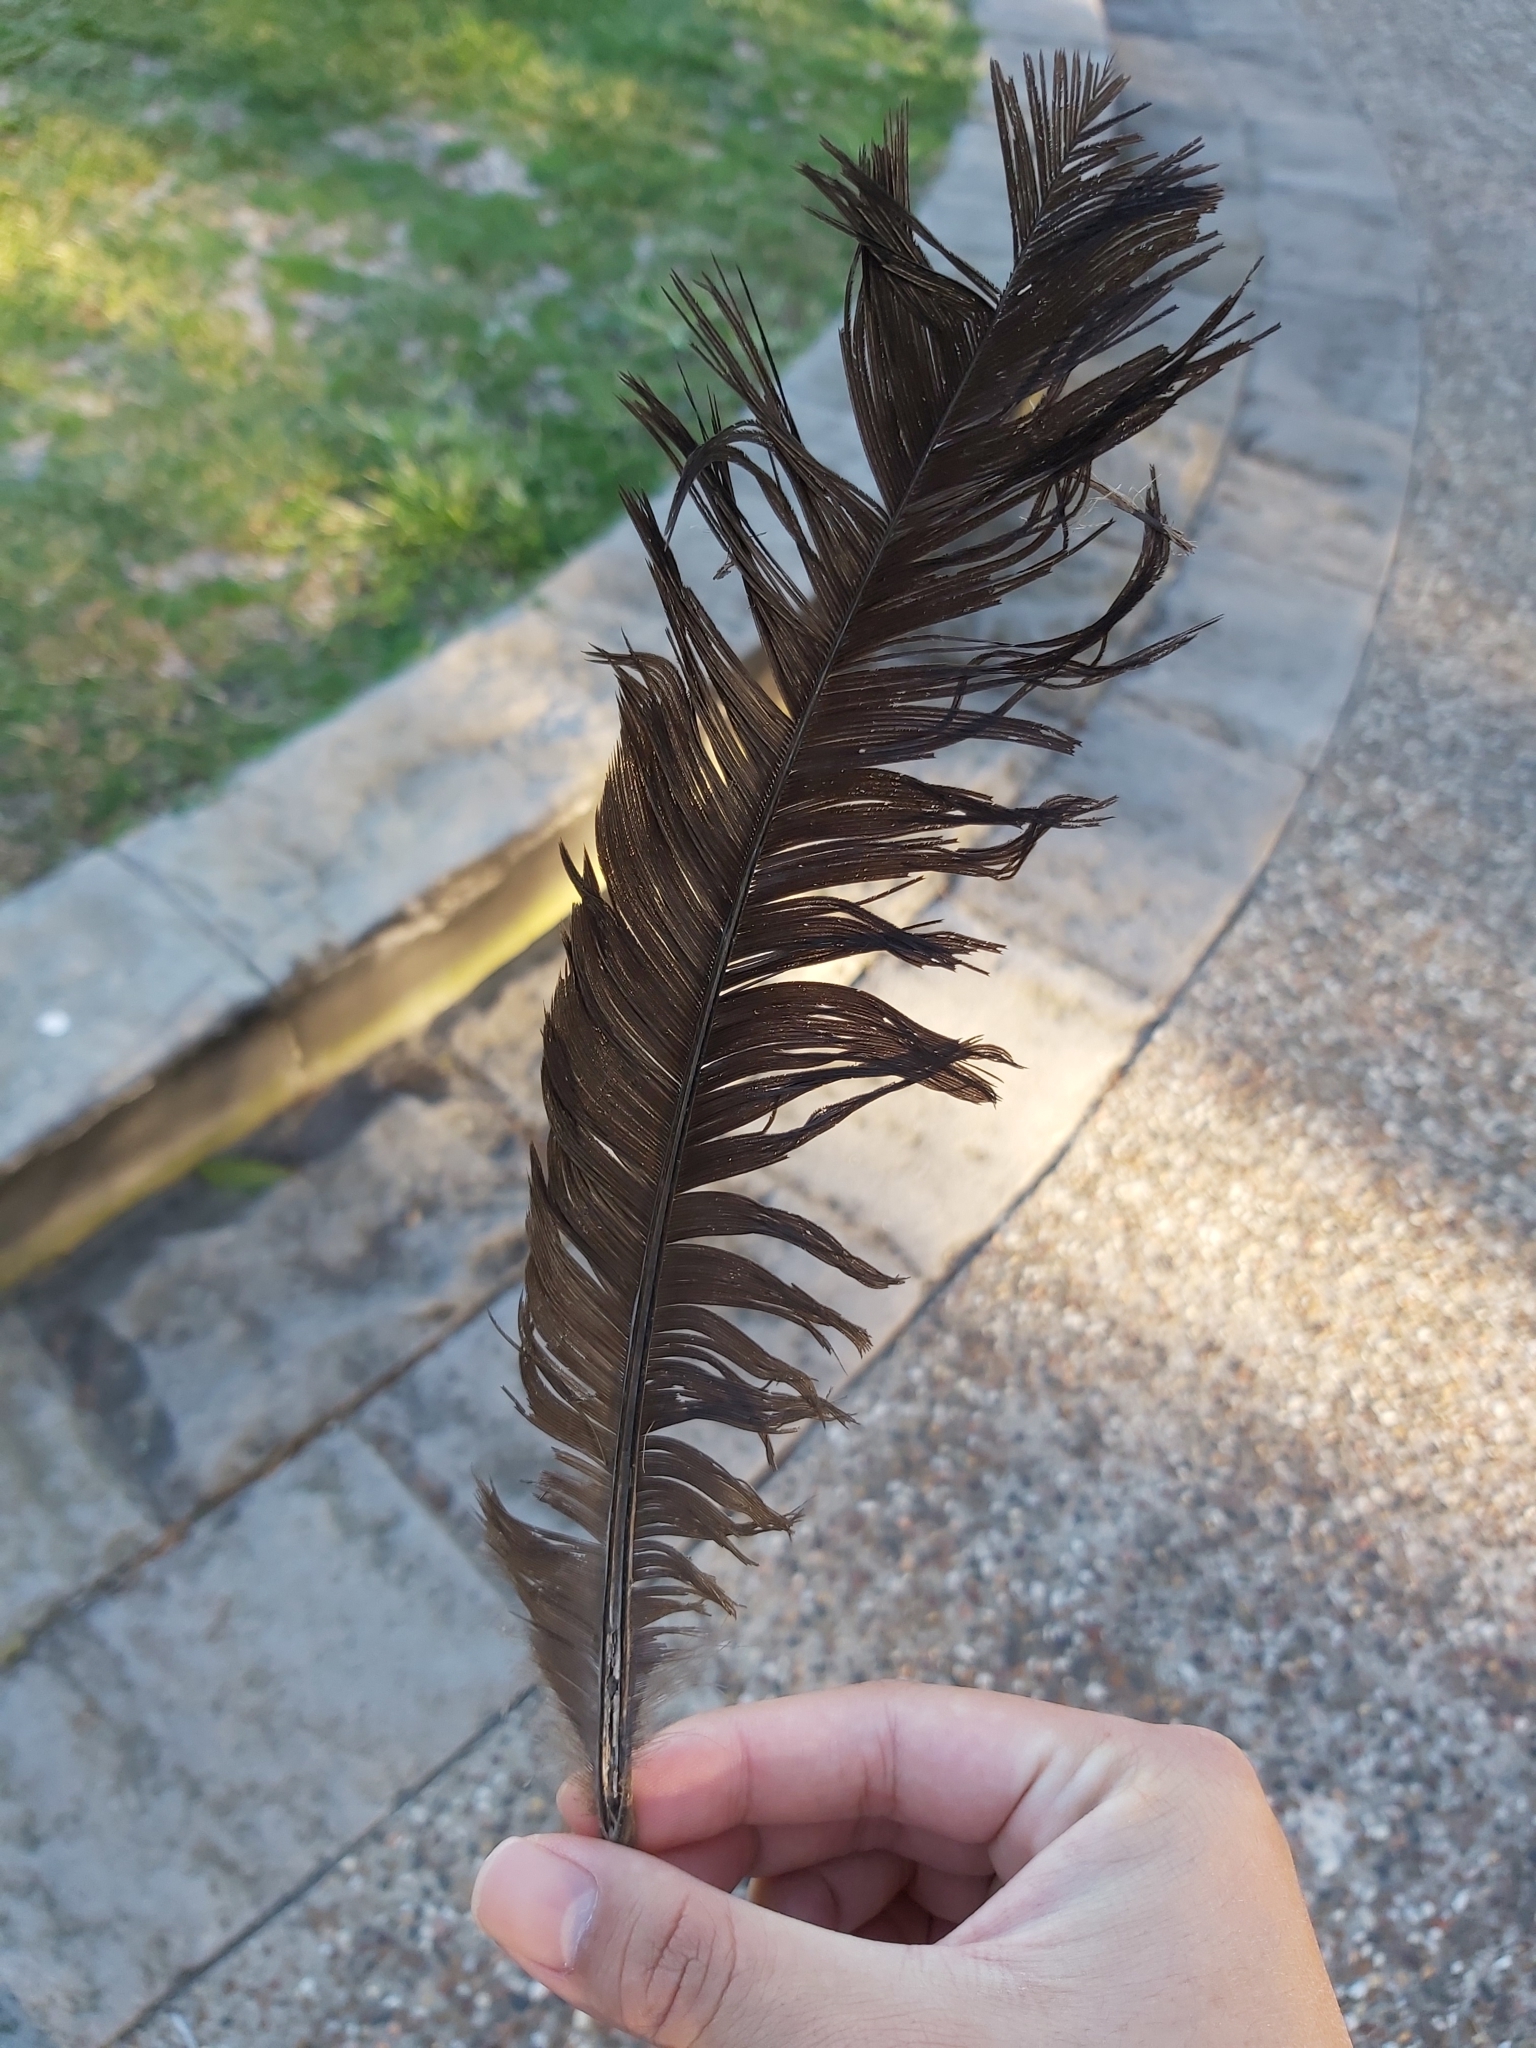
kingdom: Animalia
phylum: Chordata
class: Aves
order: Galliformes
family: Megapodiidae
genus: Alectura
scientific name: Alectura lathami
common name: Australian brushturkey
